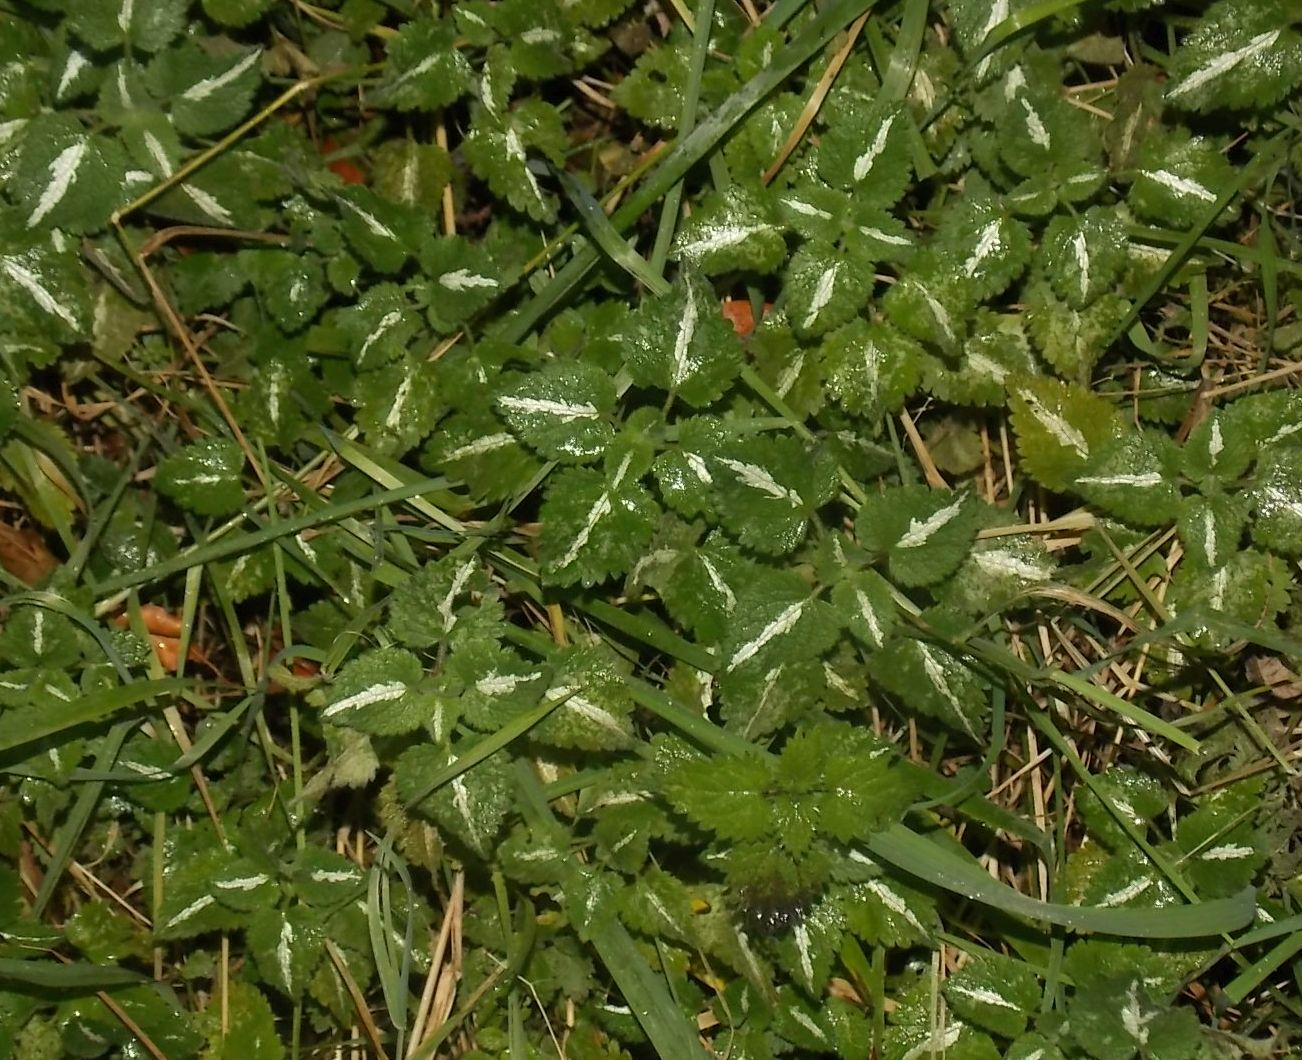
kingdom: Plantae
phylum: Tracheophyta
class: Magnoliopsida
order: Lamiales
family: Lamiaceae
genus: Lamium
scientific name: Lamium maculatum
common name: Spotted dead-nettle
